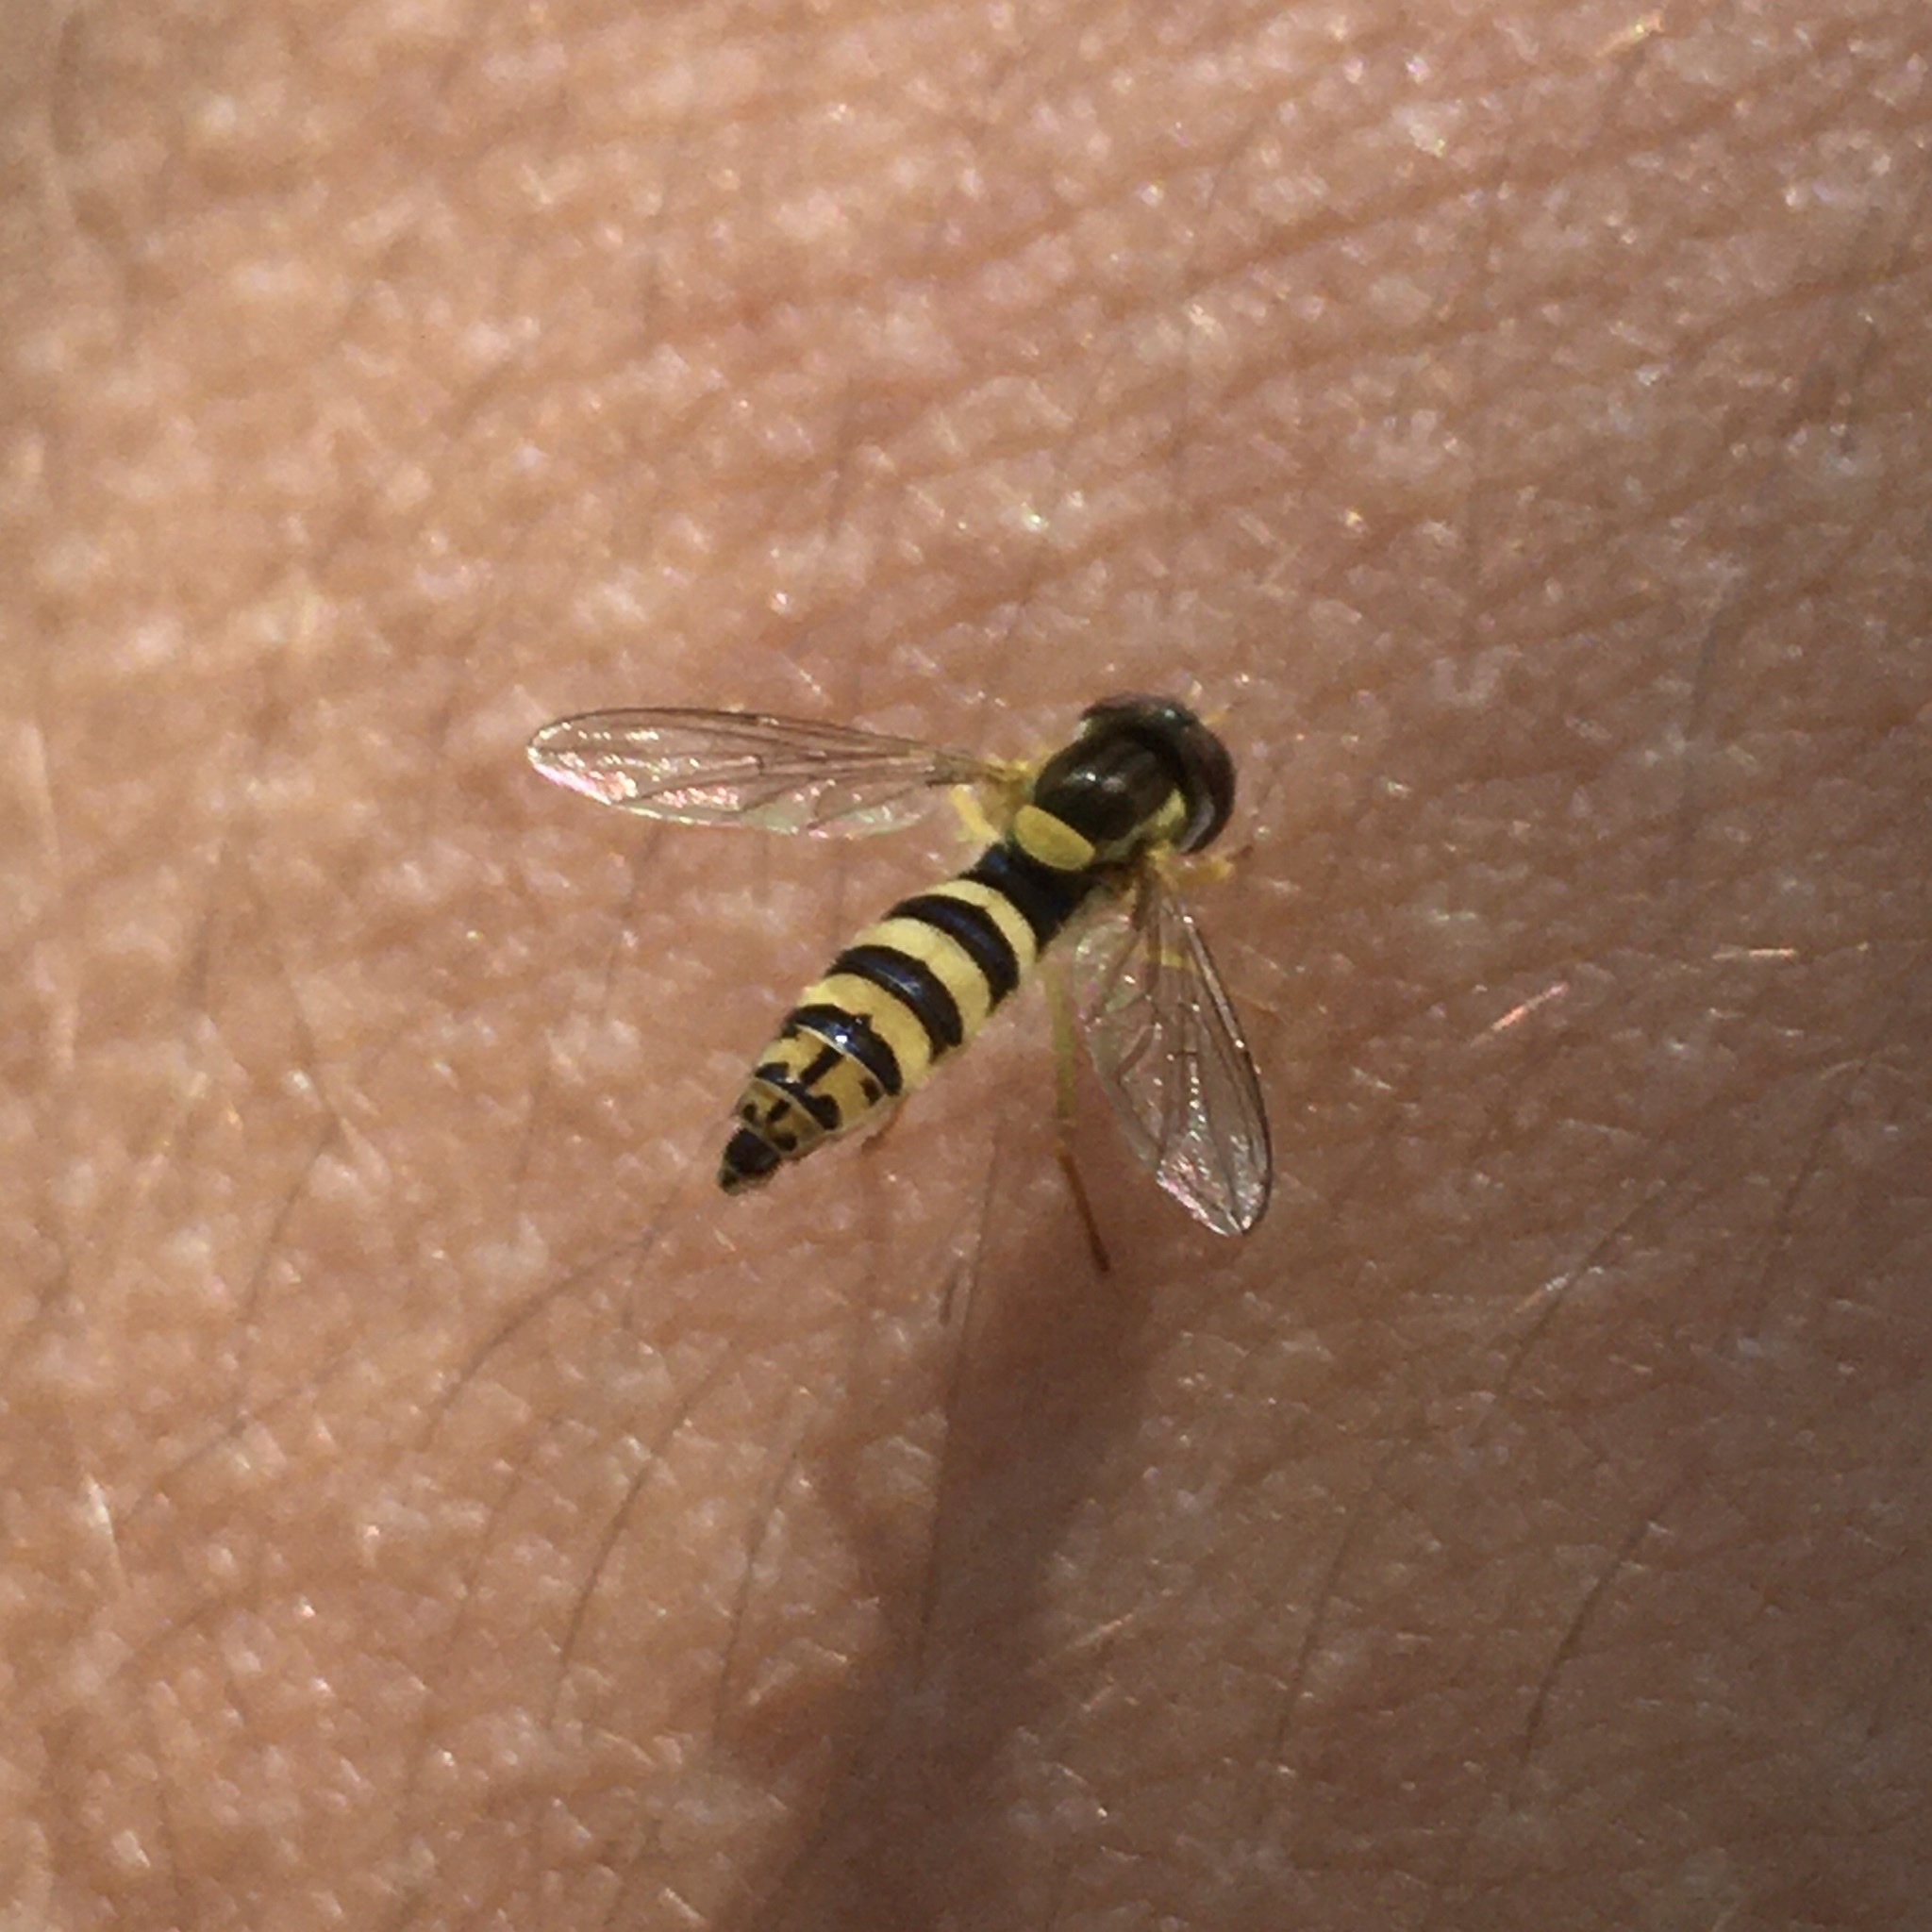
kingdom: Animalia
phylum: Arthropoda
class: Insecta
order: Diptera
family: Syrphidae
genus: Sphaerophoria
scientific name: Sphaerophoria
